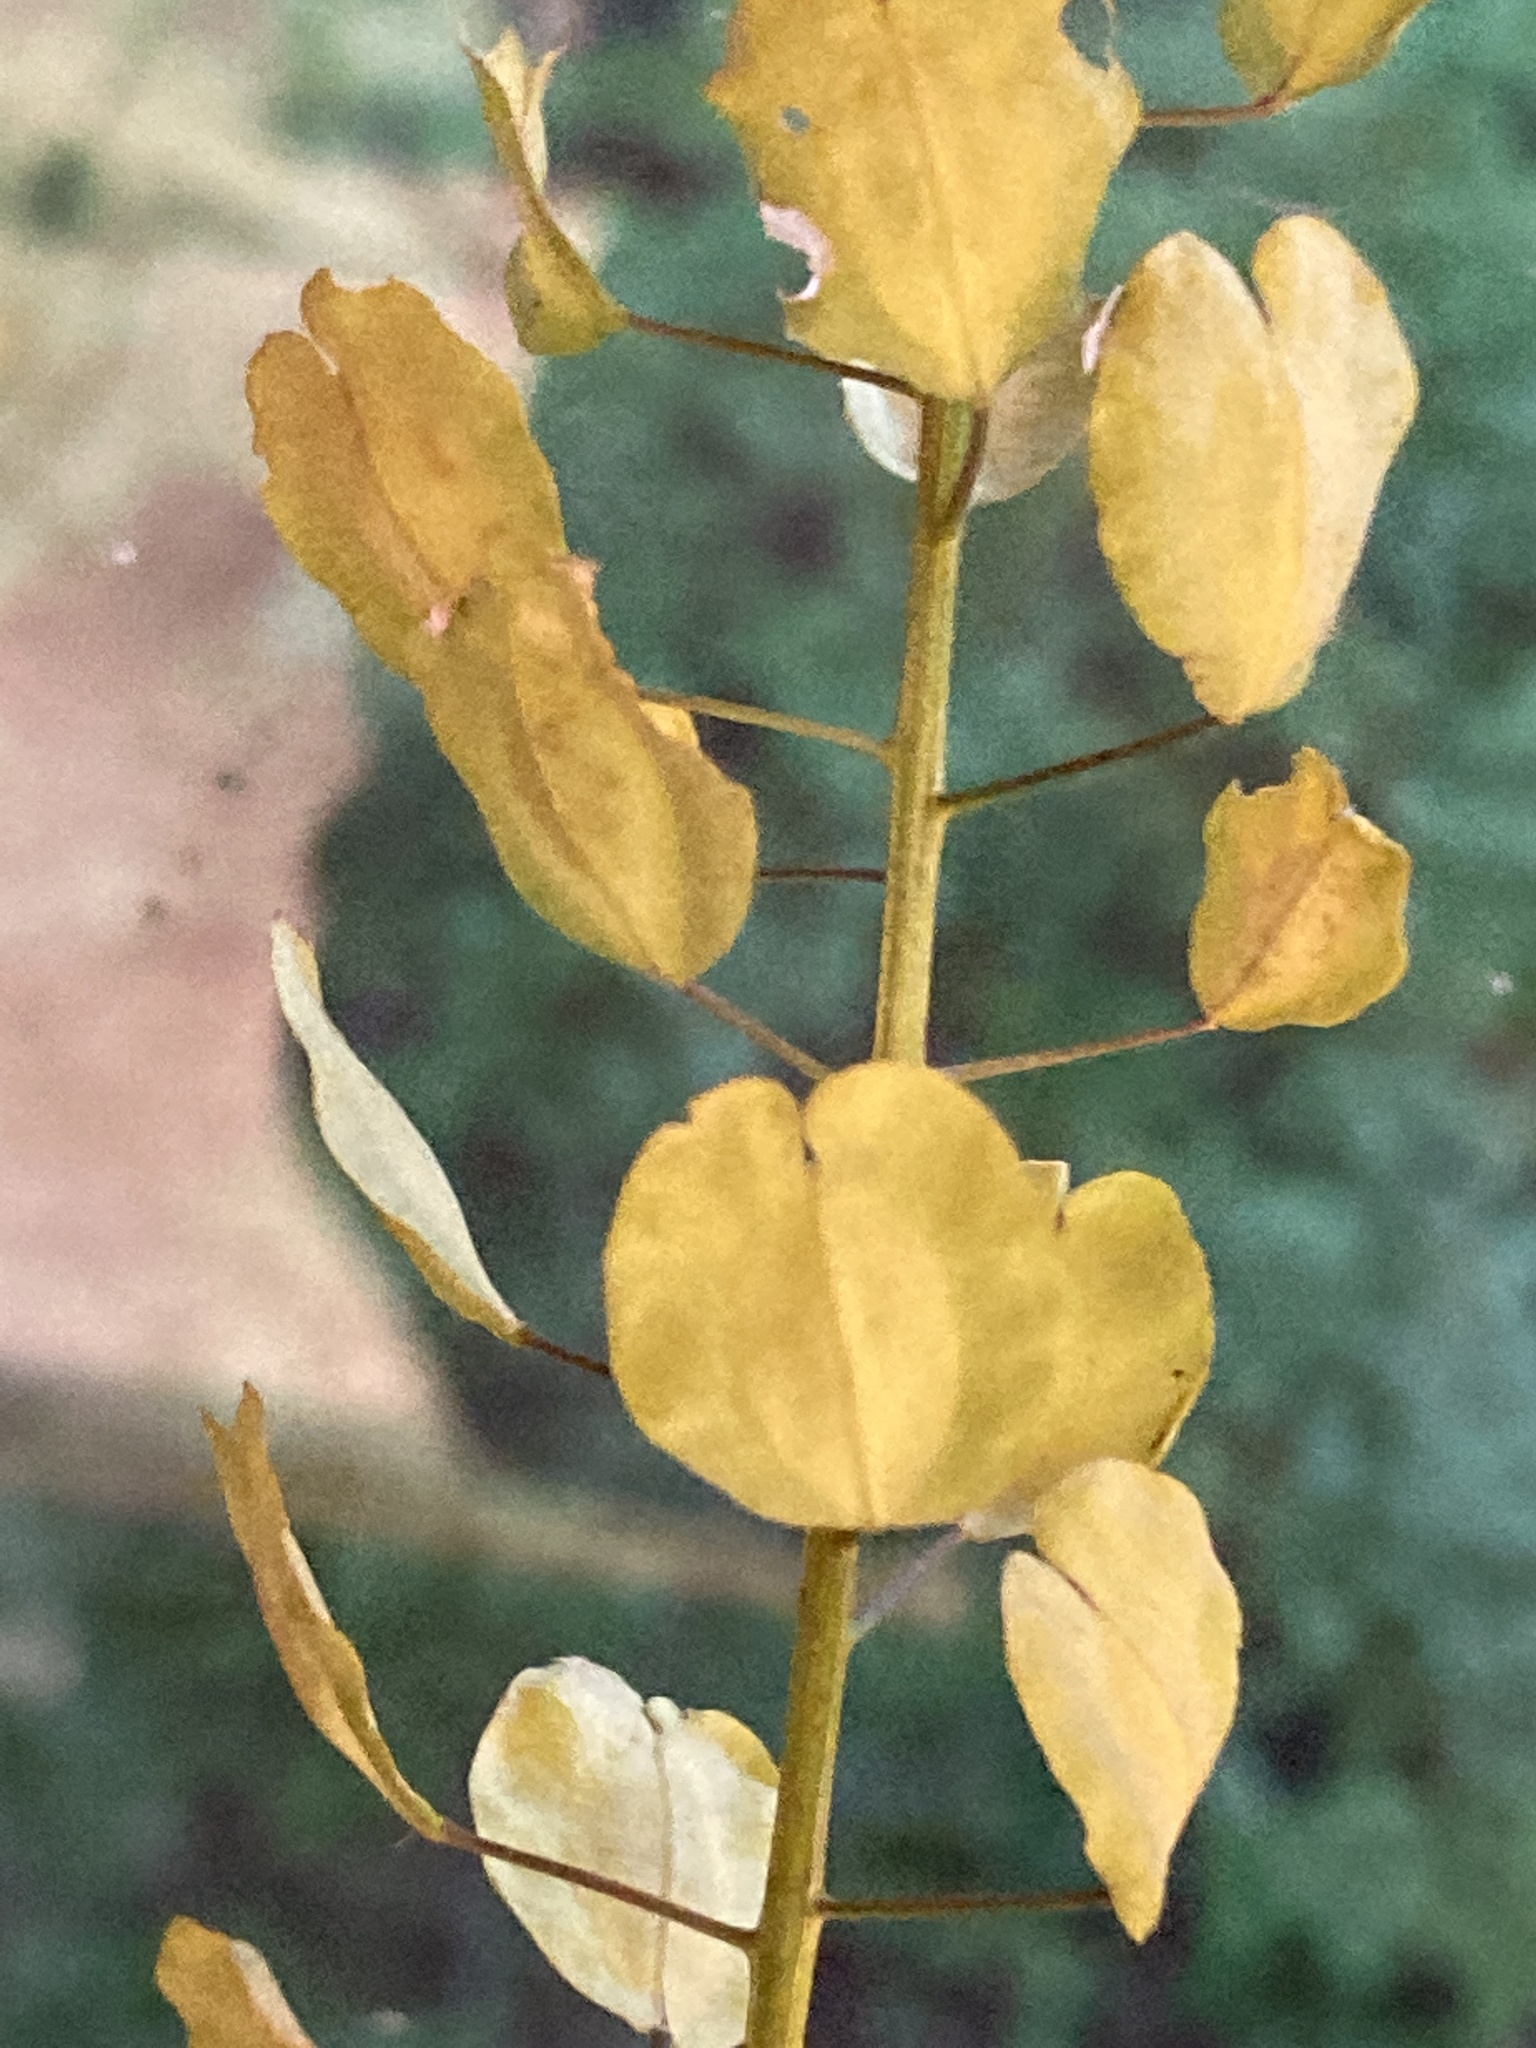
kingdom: Plantae
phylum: Tracheophyta
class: Magnoliopsida
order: Brassicales
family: Brassicaceae
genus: Thlaspi
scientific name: Thlaspi arvense
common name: Field pennycress
